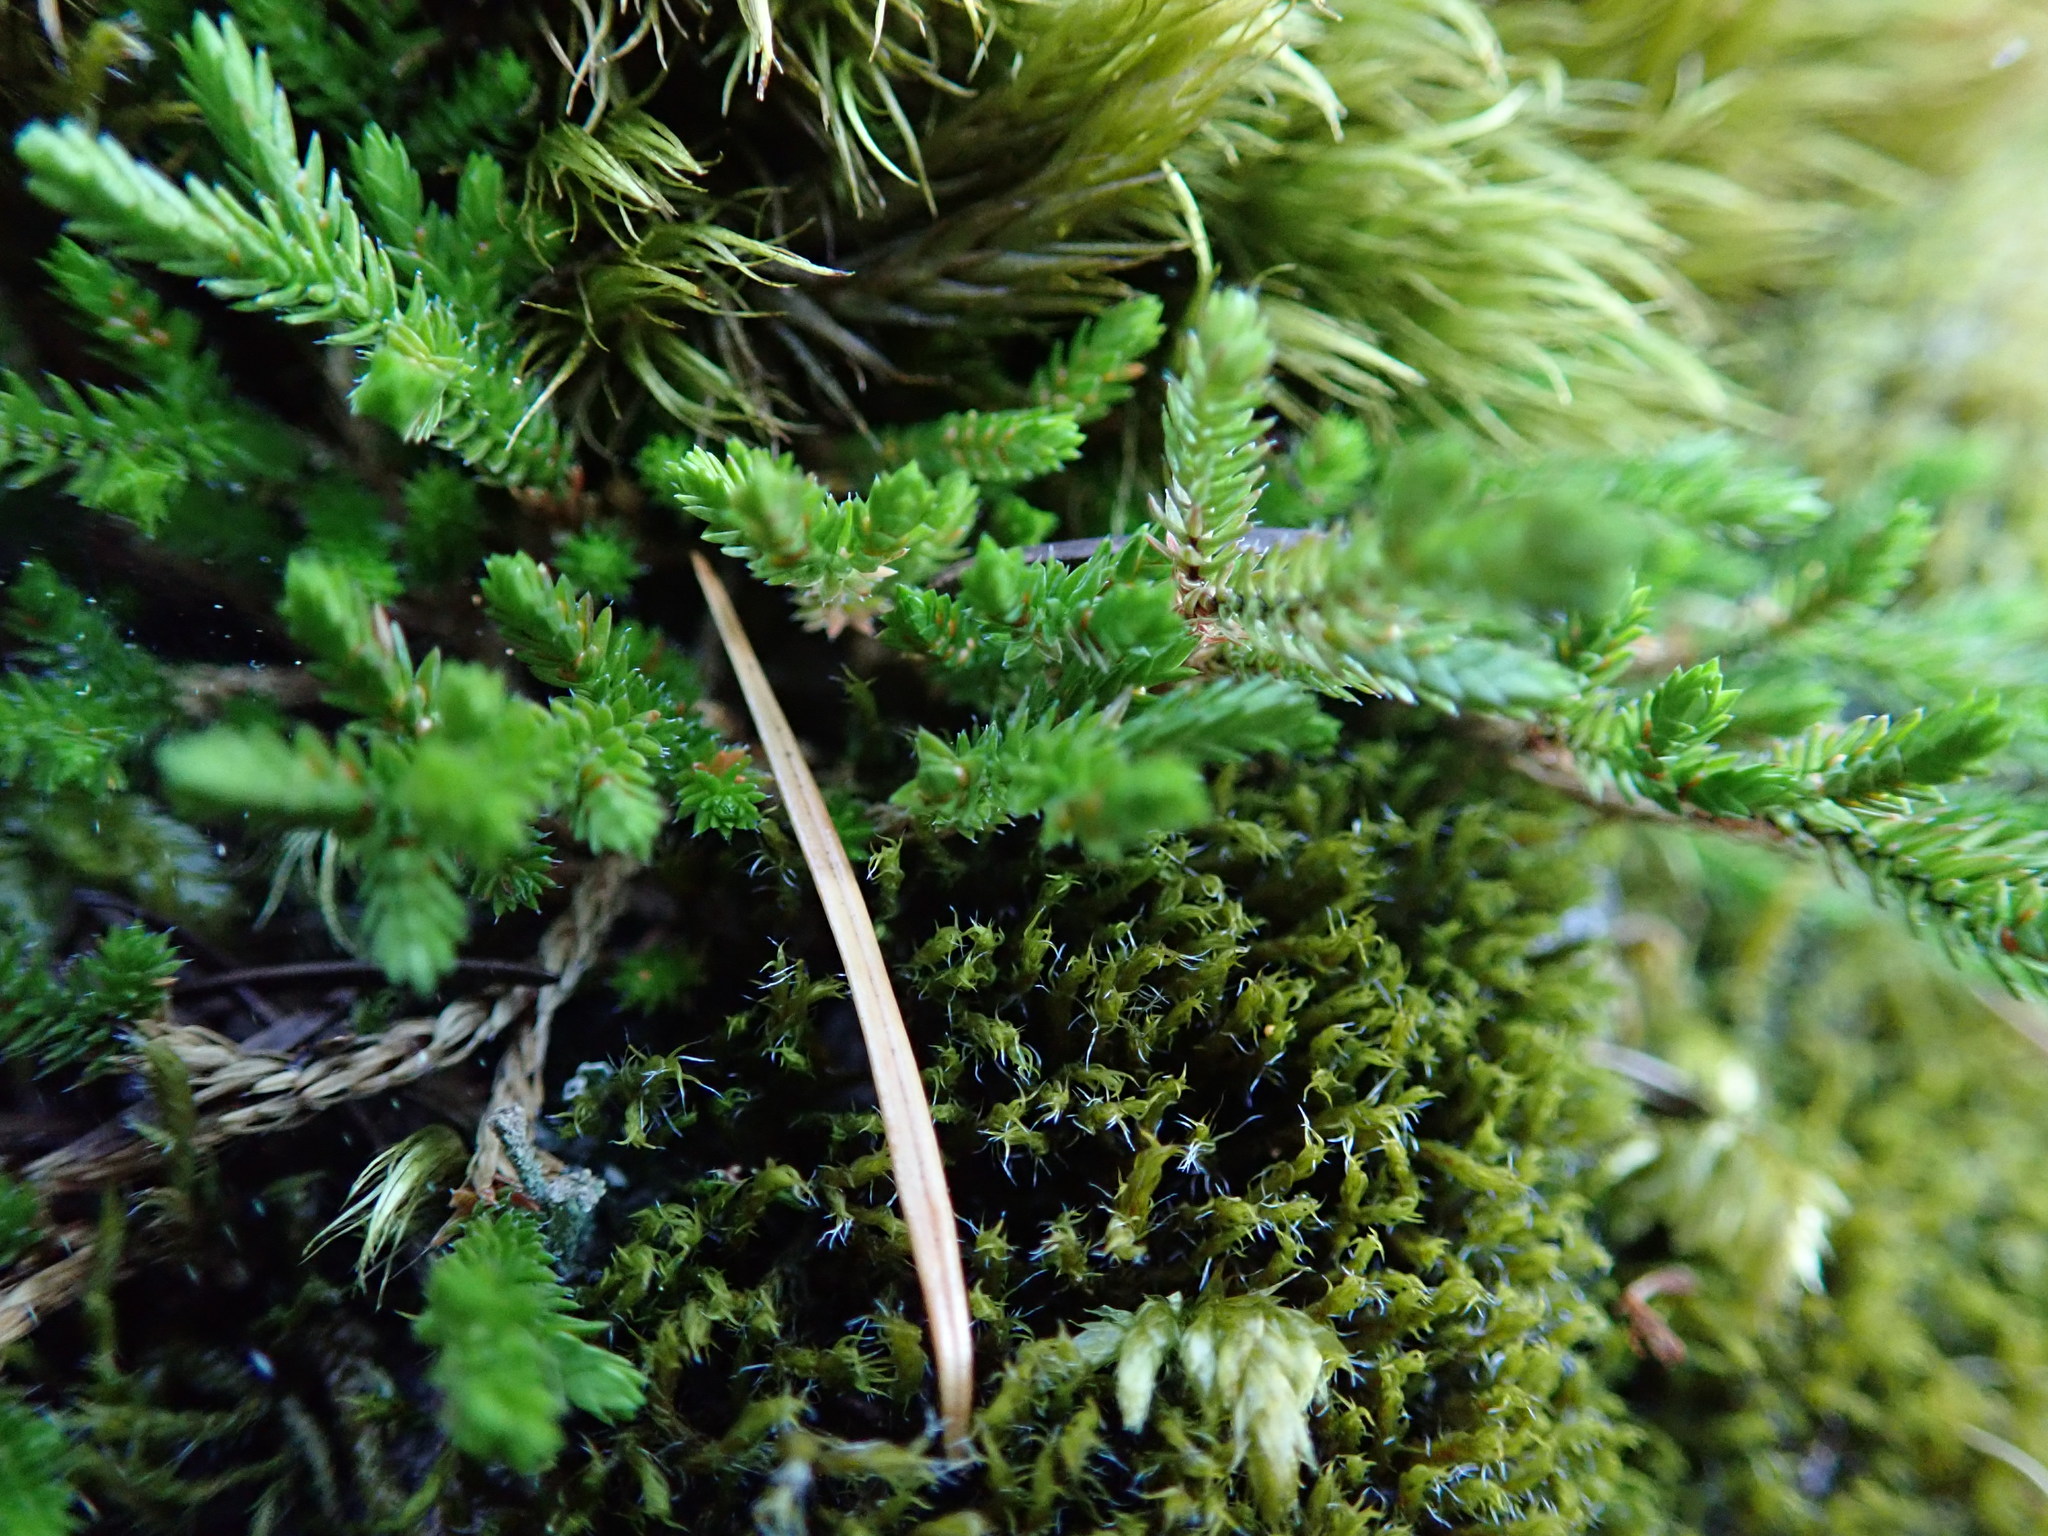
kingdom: Plantae
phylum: Tracheophyta
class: Lycopodiopsida
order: Selaginellales
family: Selaginellaceae
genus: Selaginella
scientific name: Selaginella wallacei
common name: Wallace's selaginella
